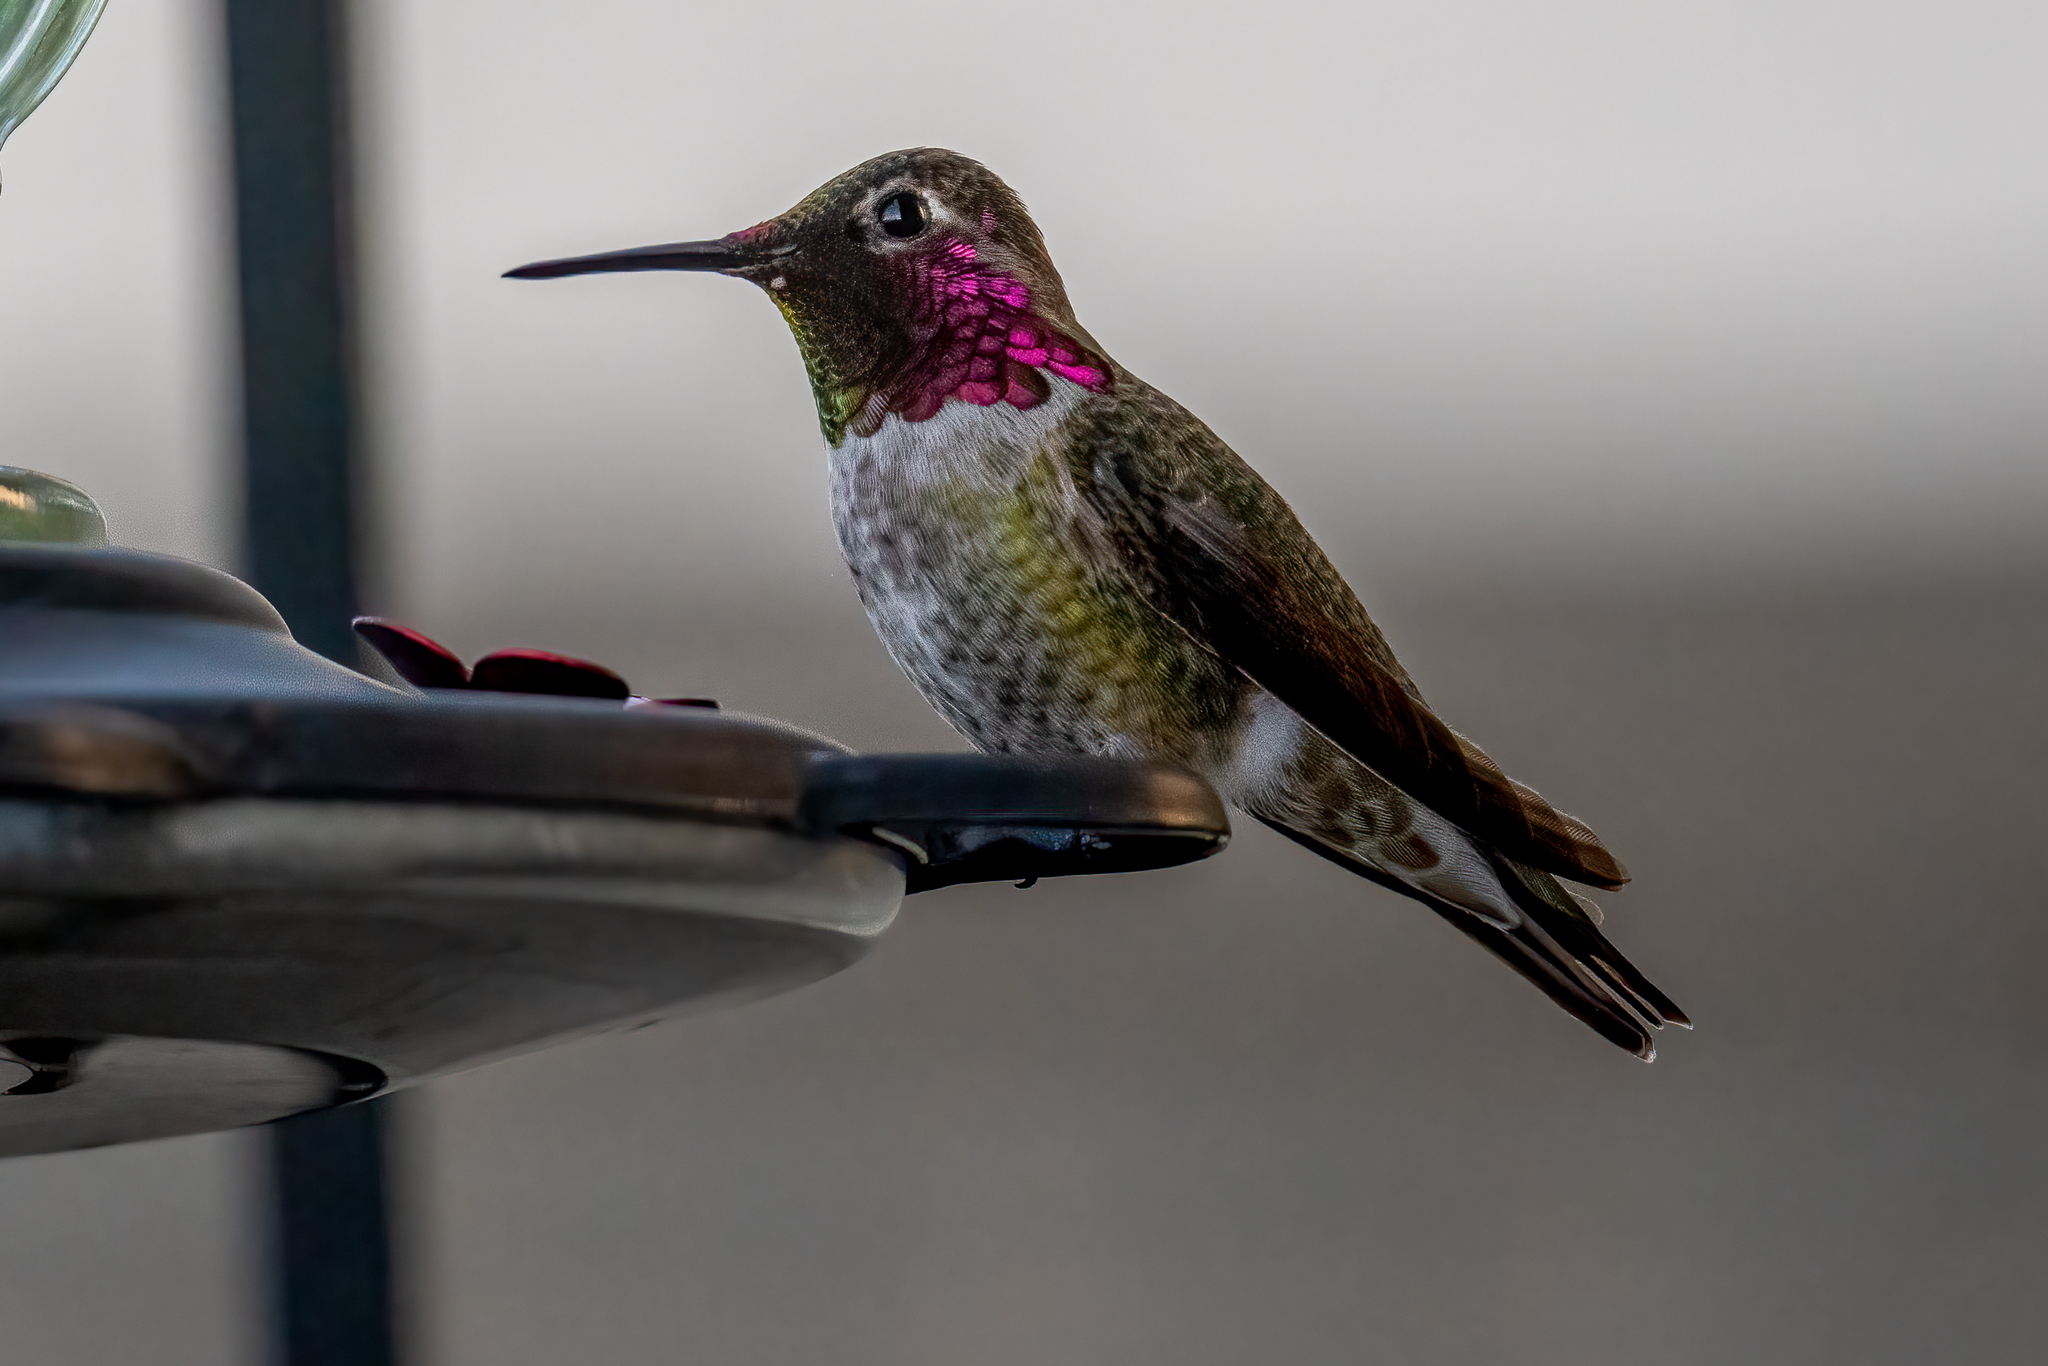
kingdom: Animalia
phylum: Chordata
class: Aves
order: Apodiformes
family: Trochilidae
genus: Calypte
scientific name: Calypte anna
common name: Anna's hummingbird
